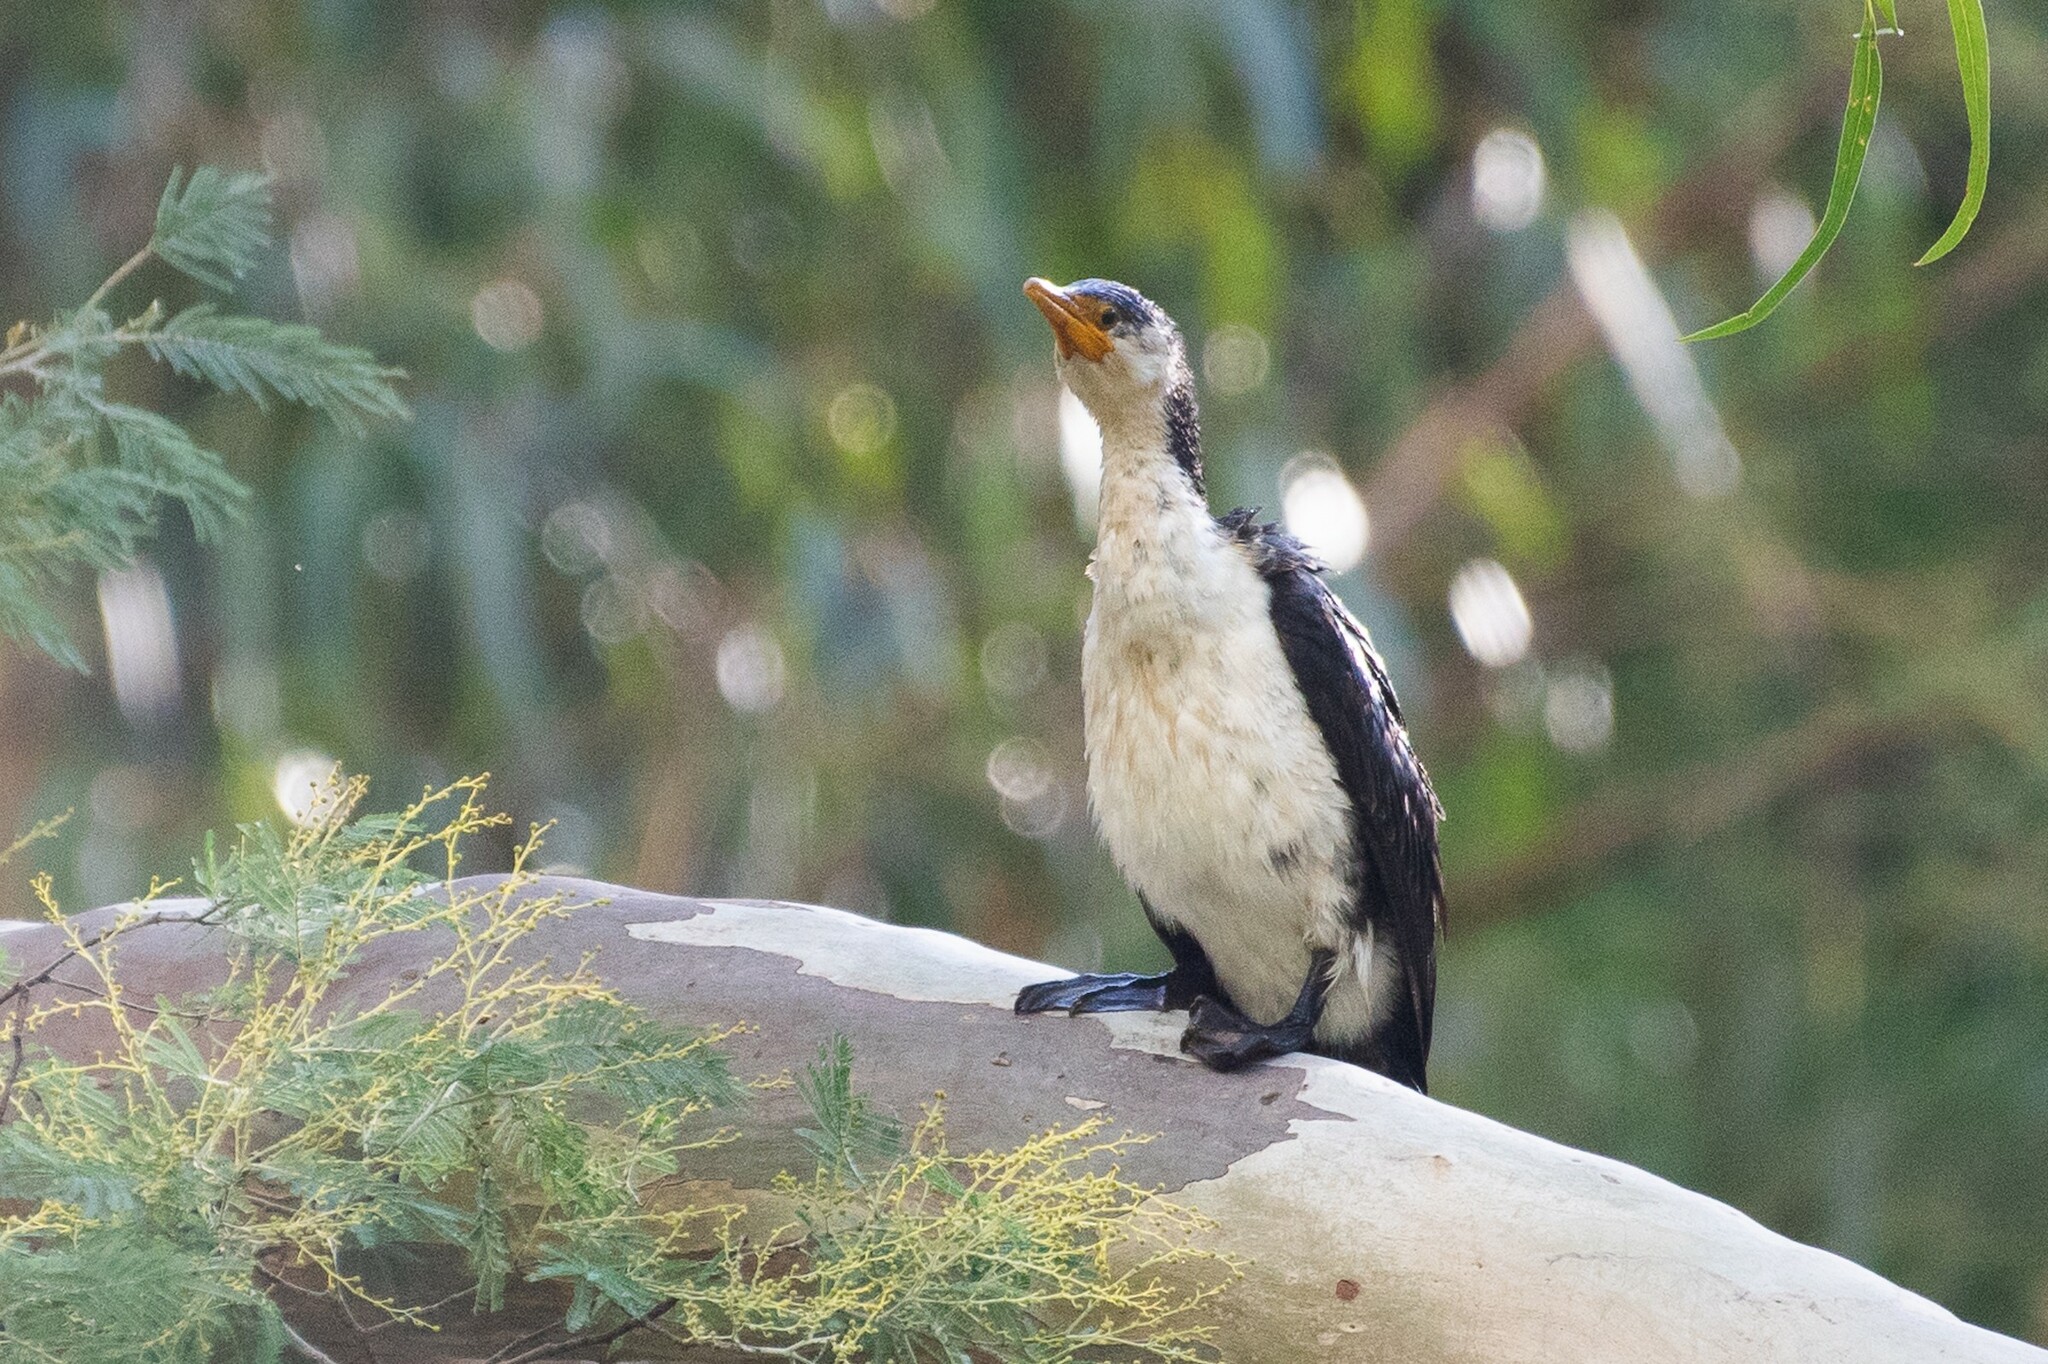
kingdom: Animalia
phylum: Chordata
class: Aves
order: Suliformes
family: Phalacrocoracidae
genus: Microcarbo
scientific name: Microcarbo melanoleucos
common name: Little pied cormorant
